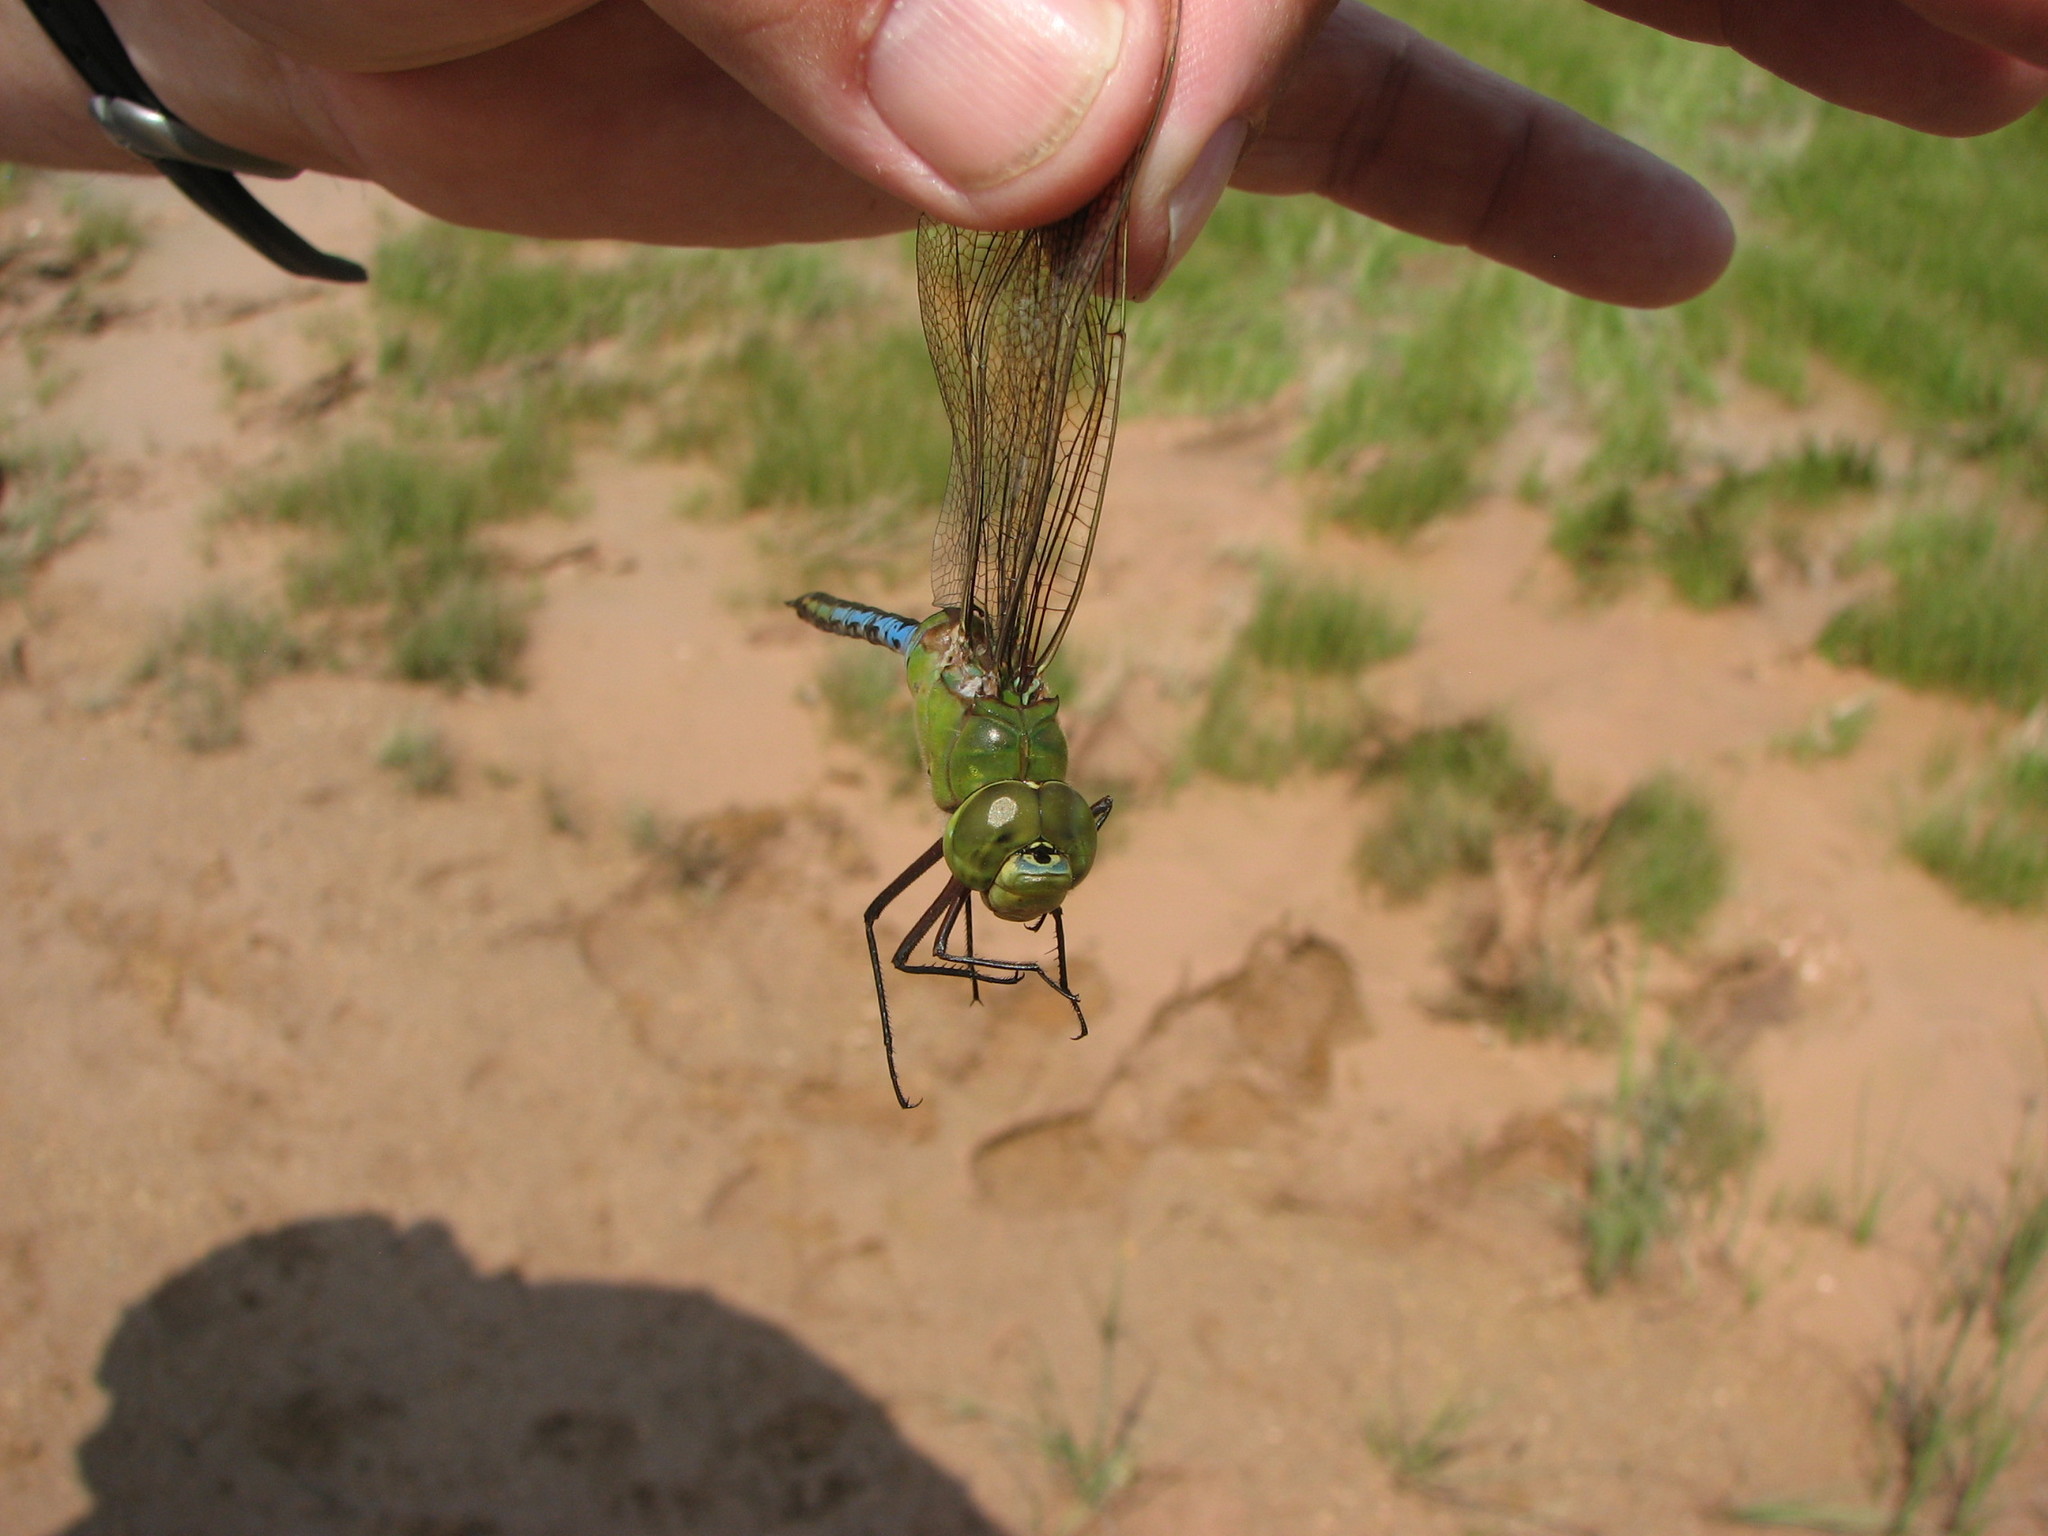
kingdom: Animalia
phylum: Arthropoda
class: Insecta
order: Odonata
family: Aeshnidae
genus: Anax
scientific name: Anax junius
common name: Common green darner
